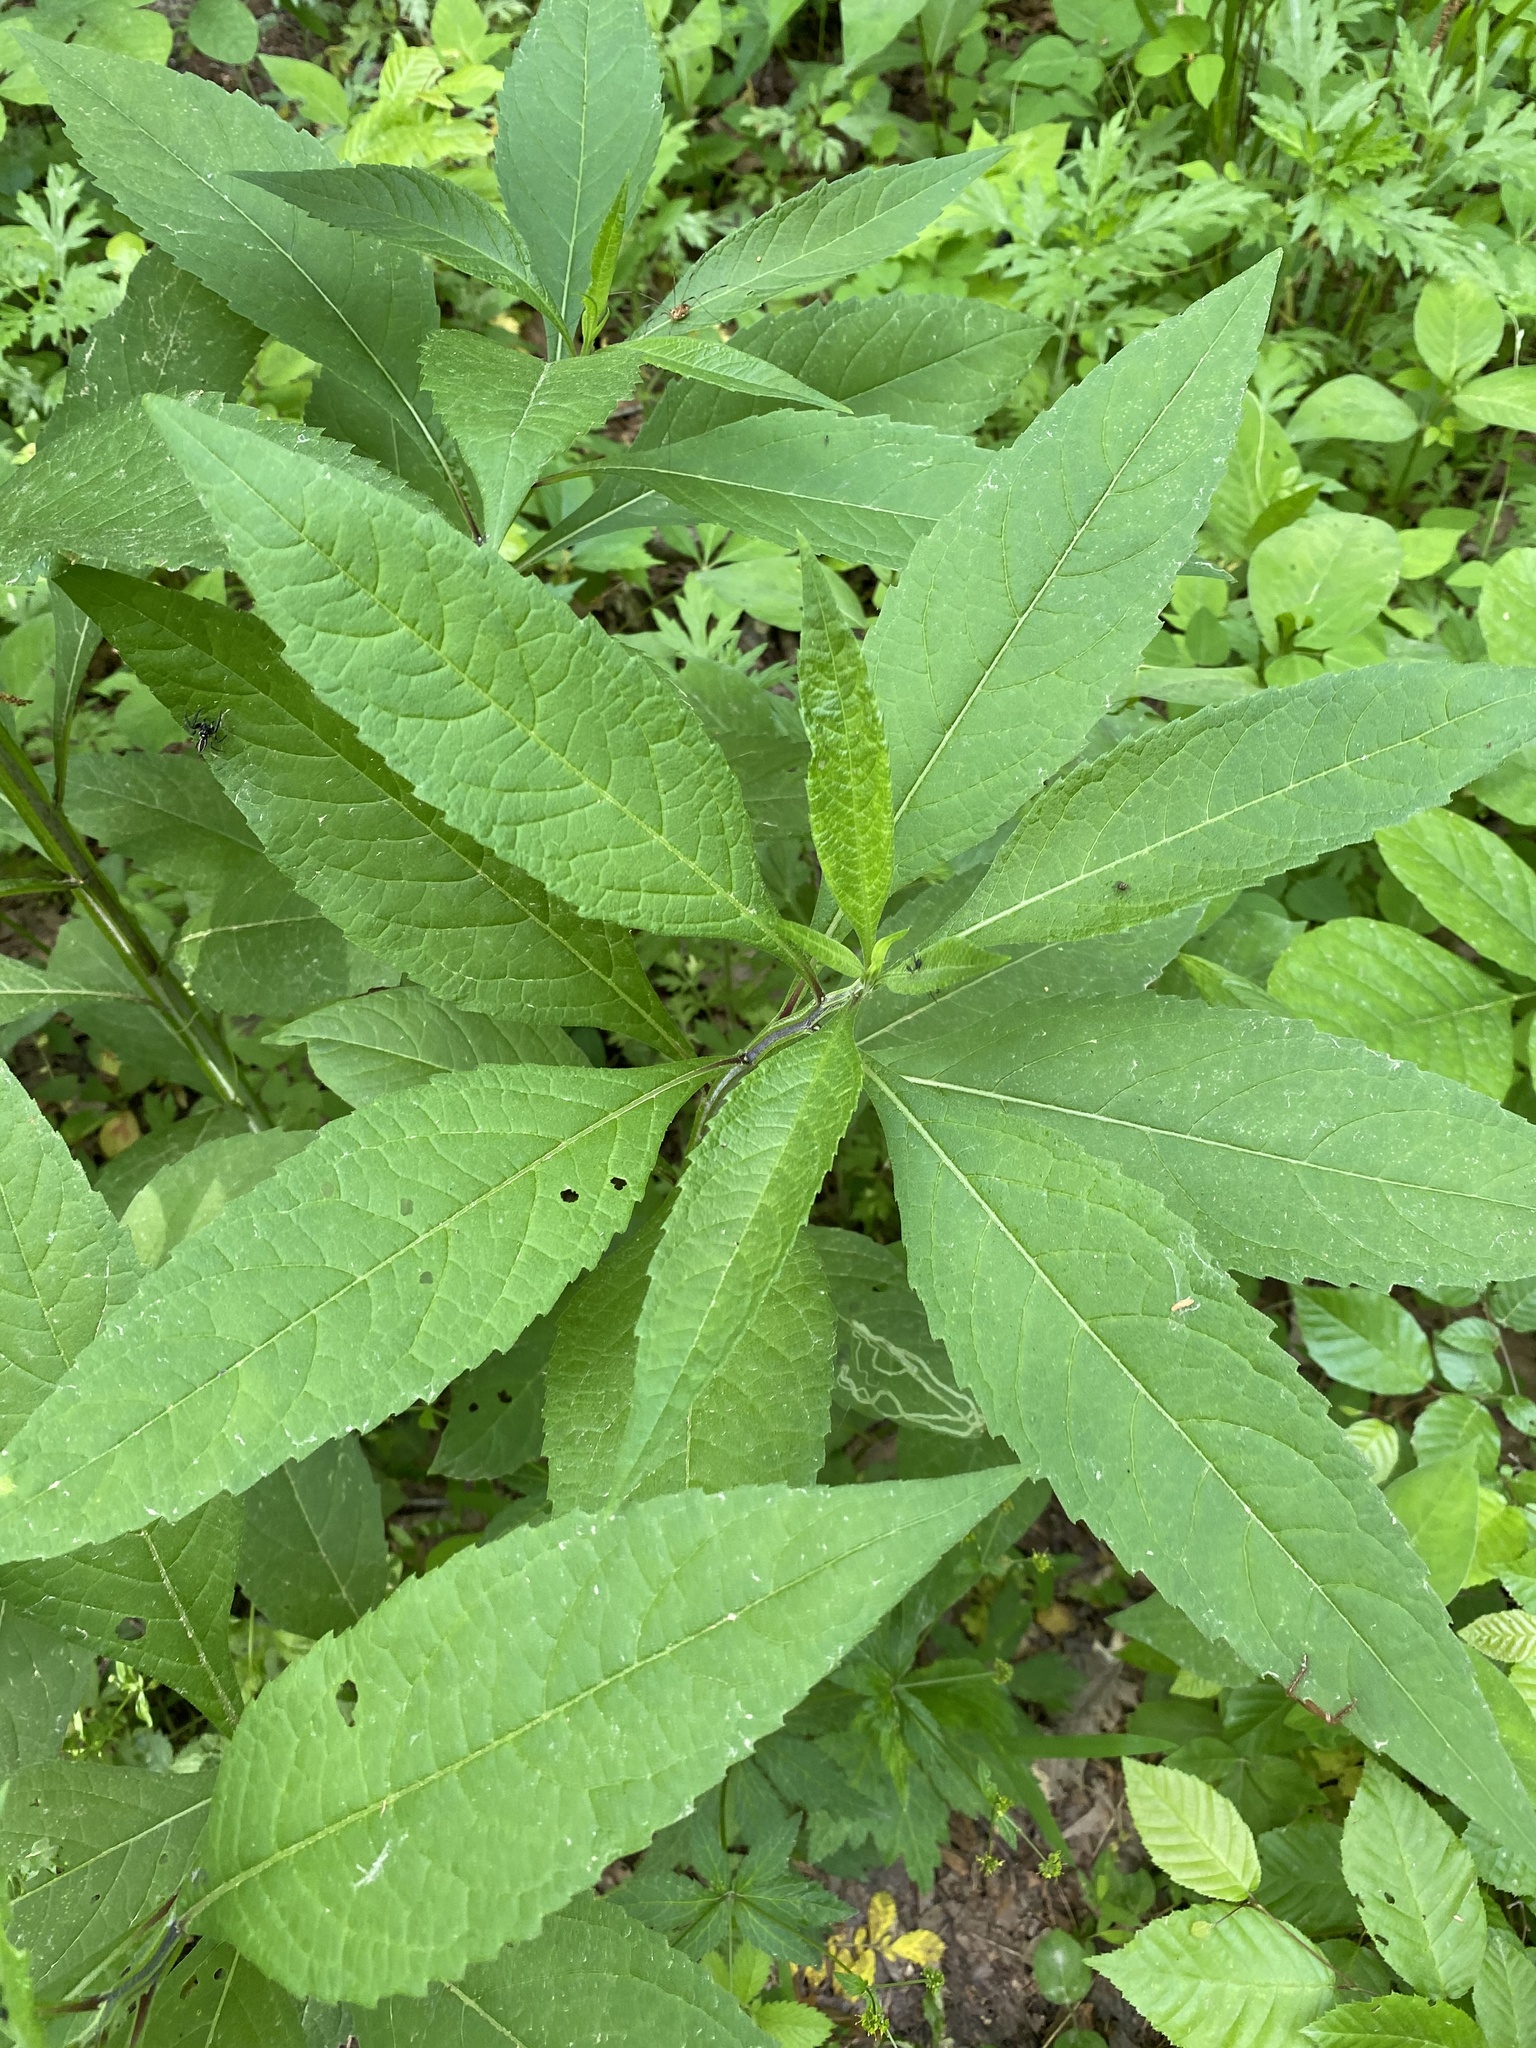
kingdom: Plantae
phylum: Tracheophyta
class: Magnoliopsida
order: Asterales
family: Asteraceae
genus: Verbesina
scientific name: Verbesina alternifolia
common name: Wingstem
